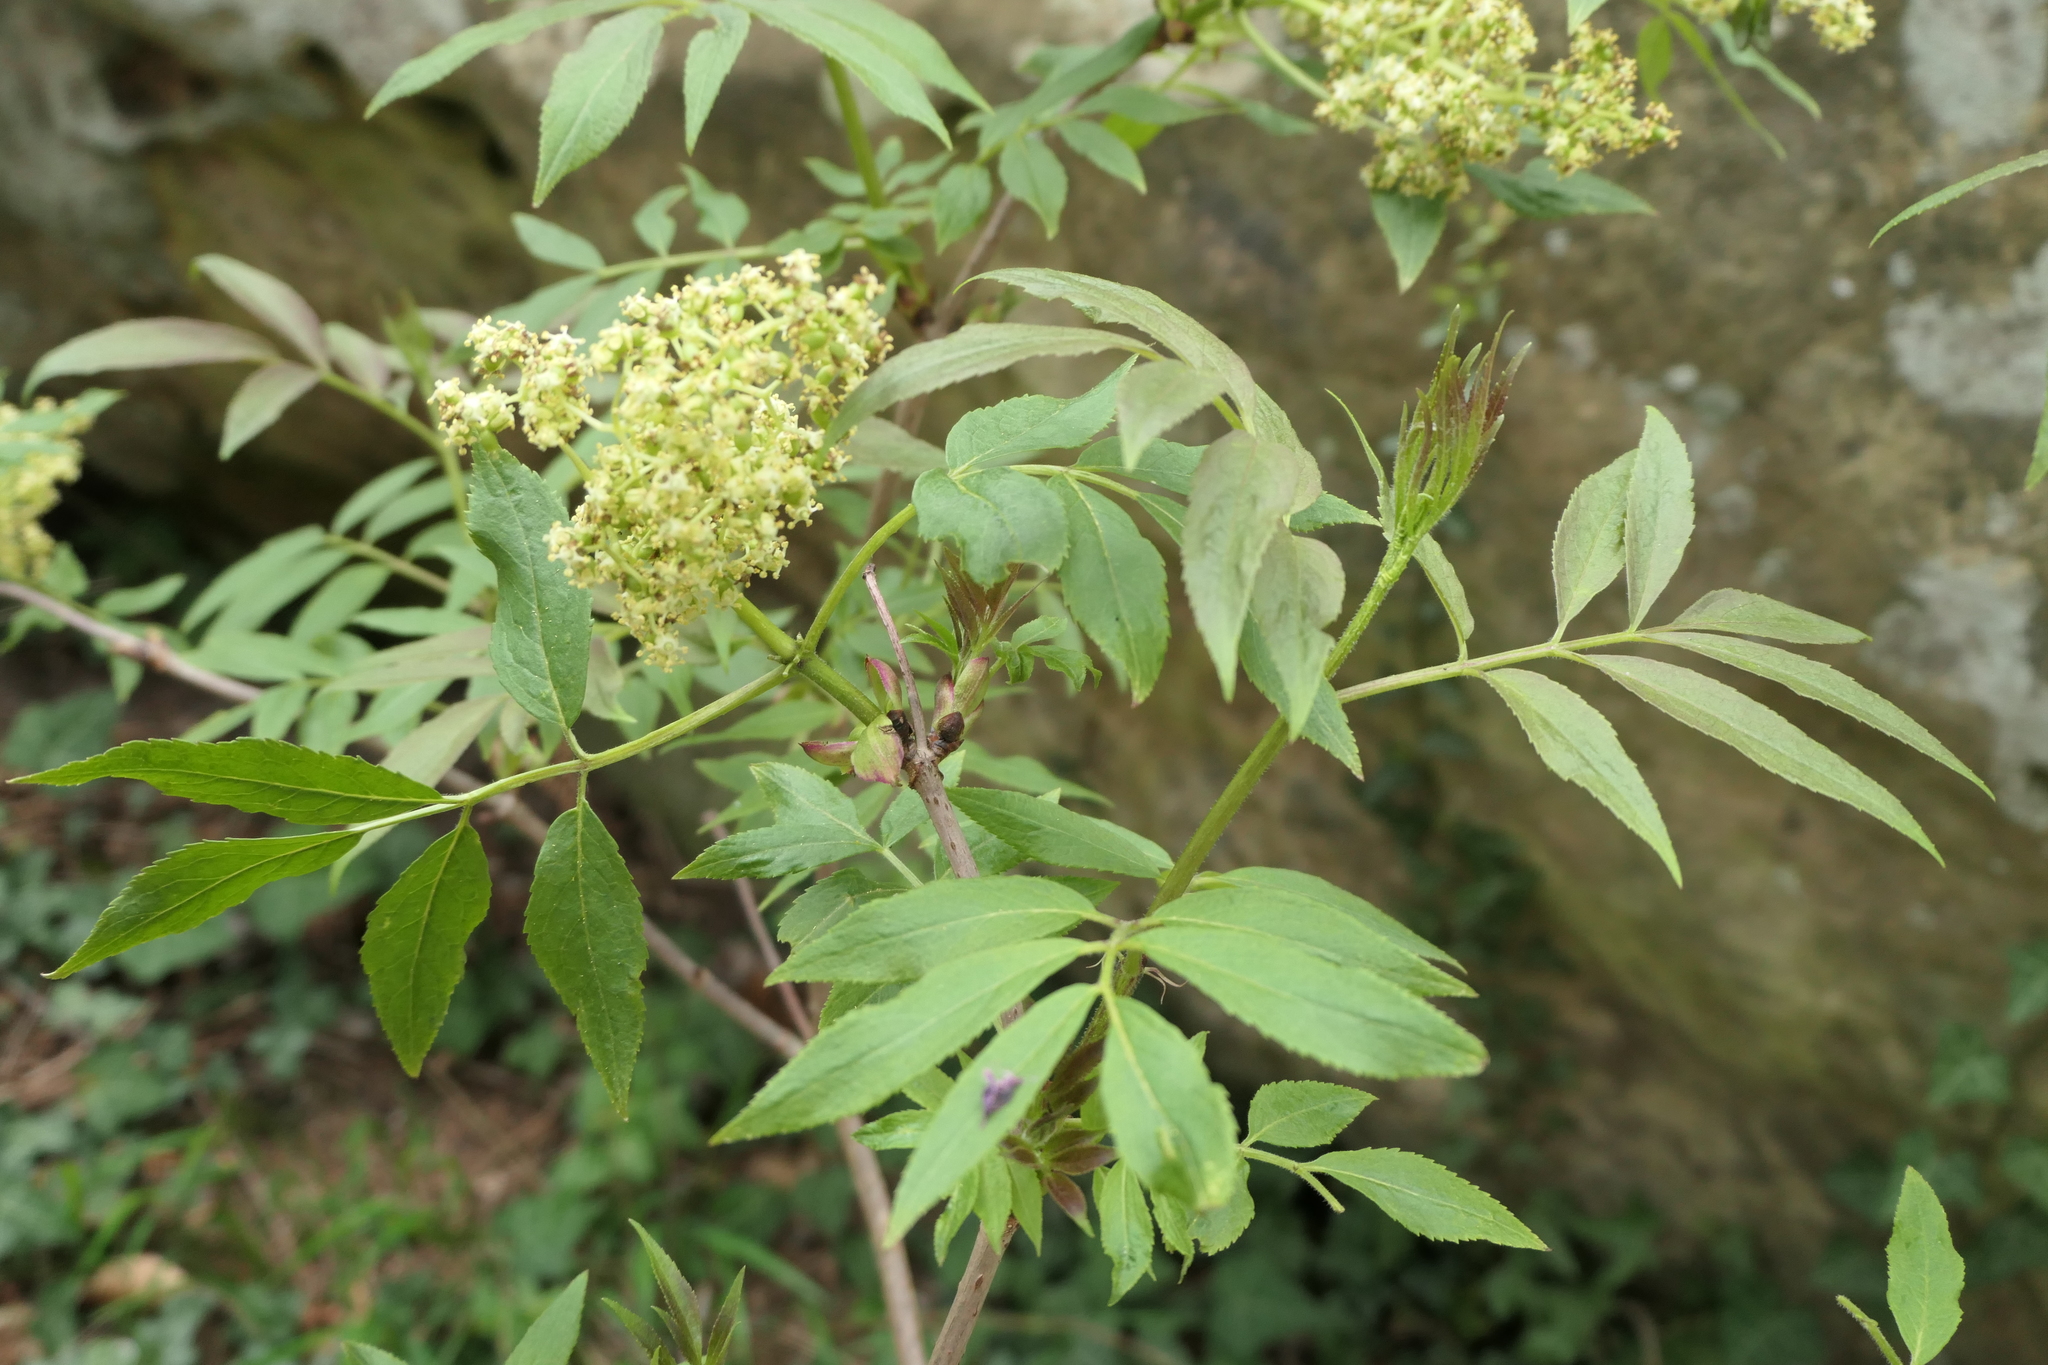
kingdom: Plantae
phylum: Tracheophyta
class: Magnoliopsida
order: Dipsacales
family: Viburnaceae
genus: Sambucus
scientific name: Sambucus racemosa
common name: Red-berried elder
